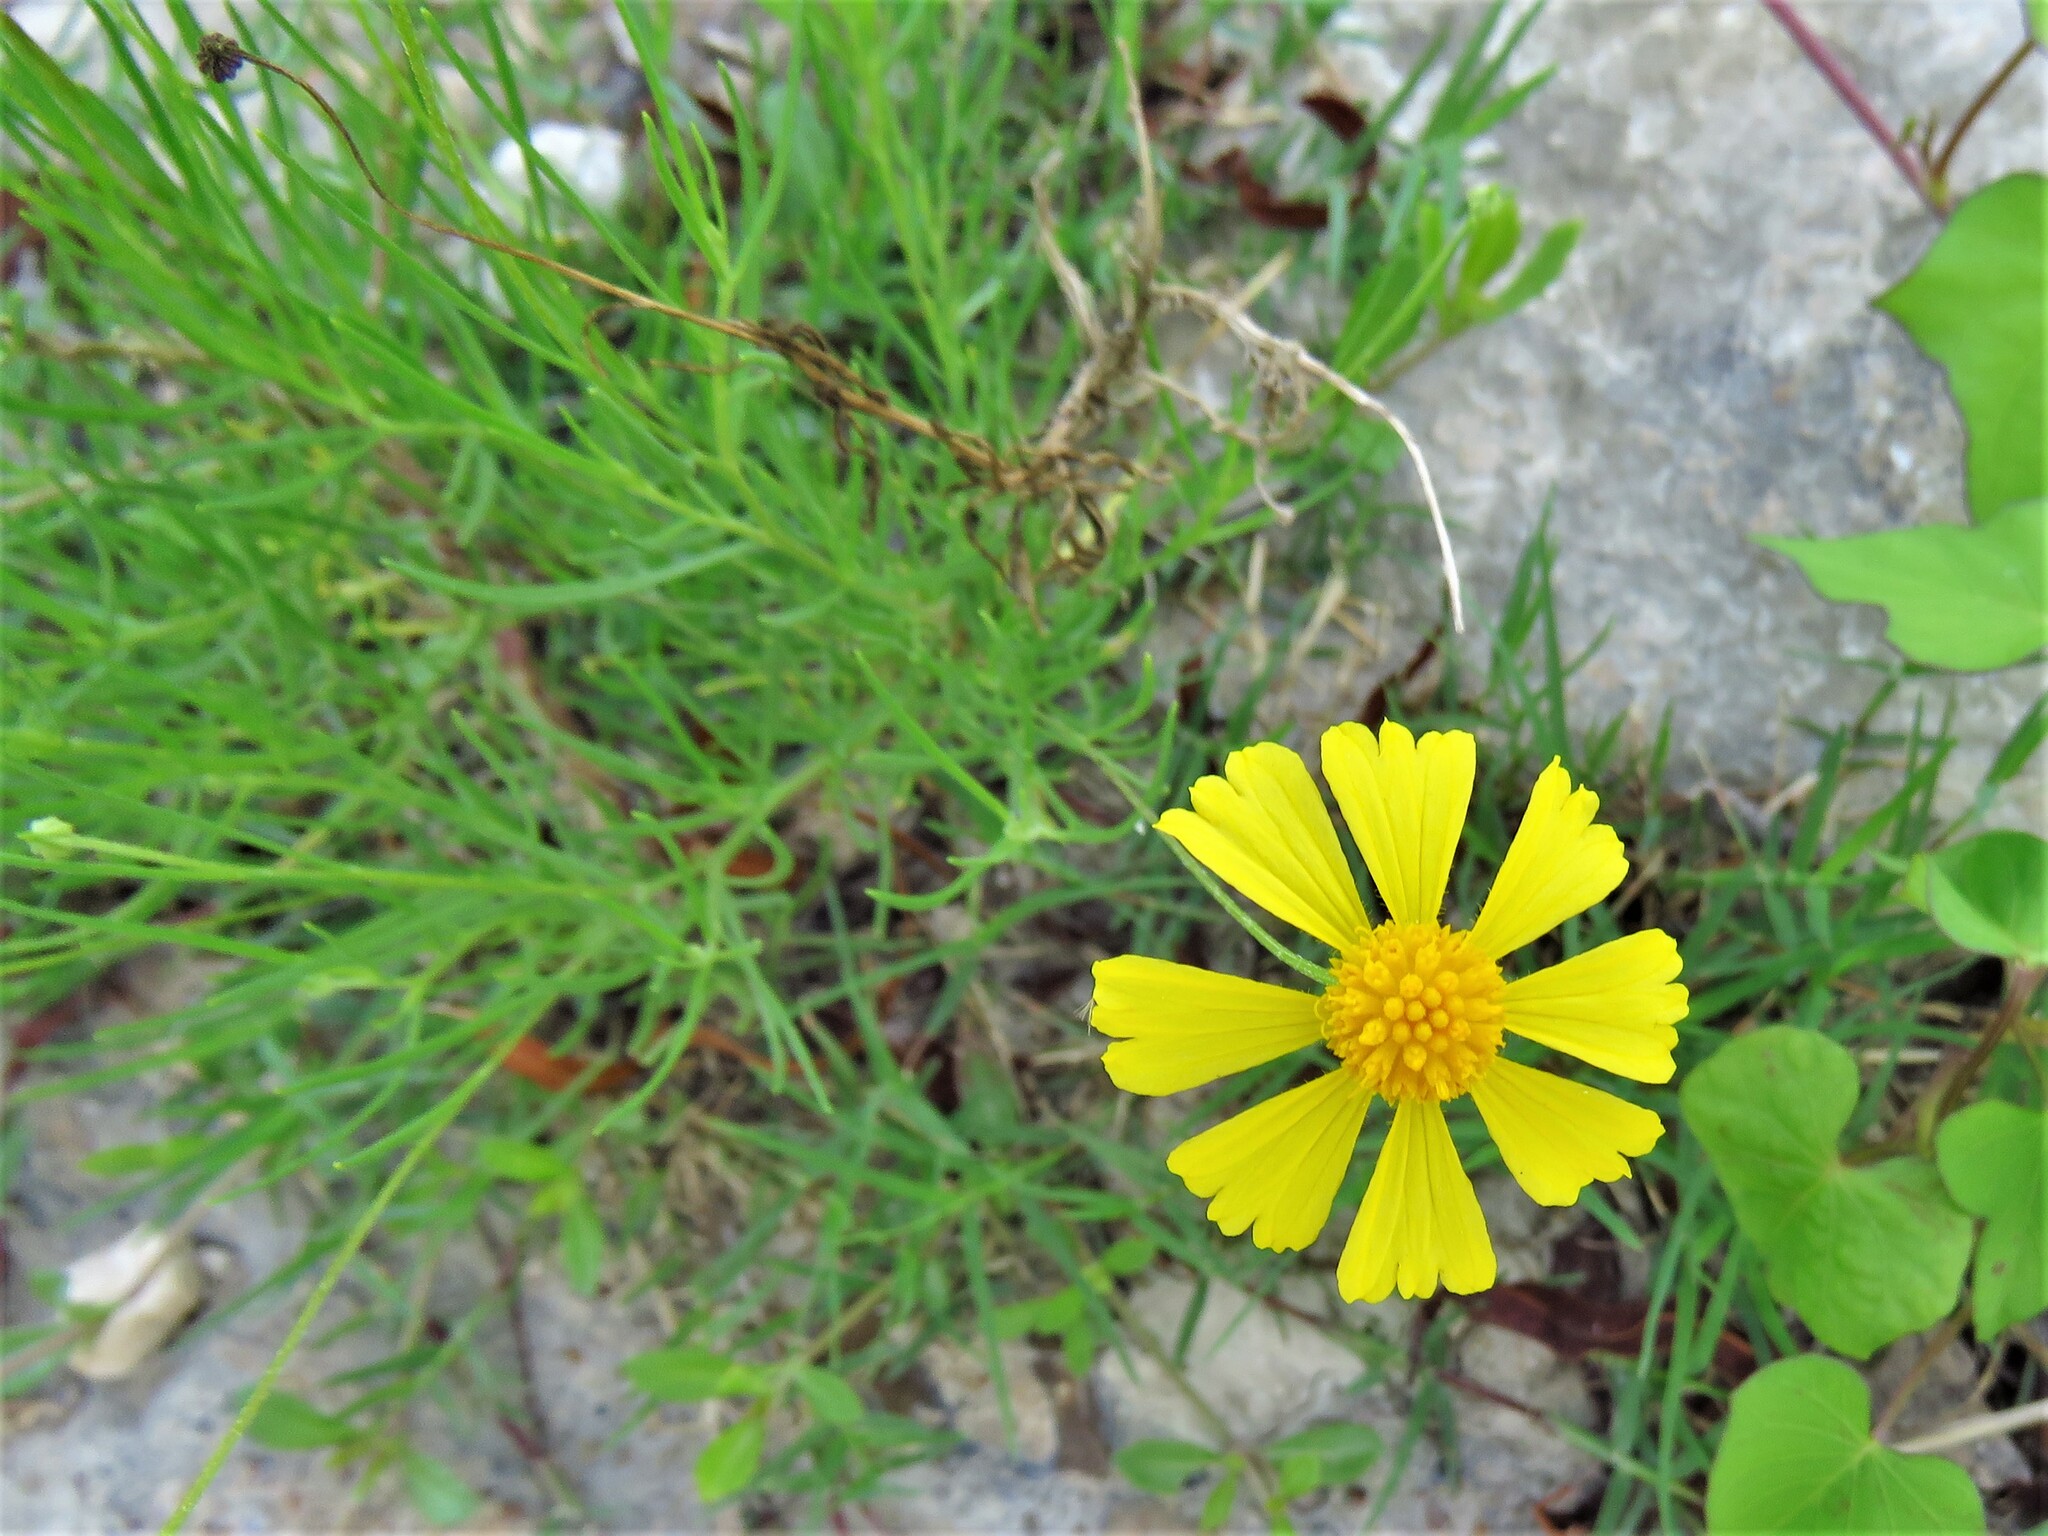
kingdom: Plantae
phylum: Tracheophyta
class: Magnoliopsida
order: Asterales
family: Asteraceae
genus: Helenium
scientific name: Helenium amarum
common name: Bitter sneezeweed
